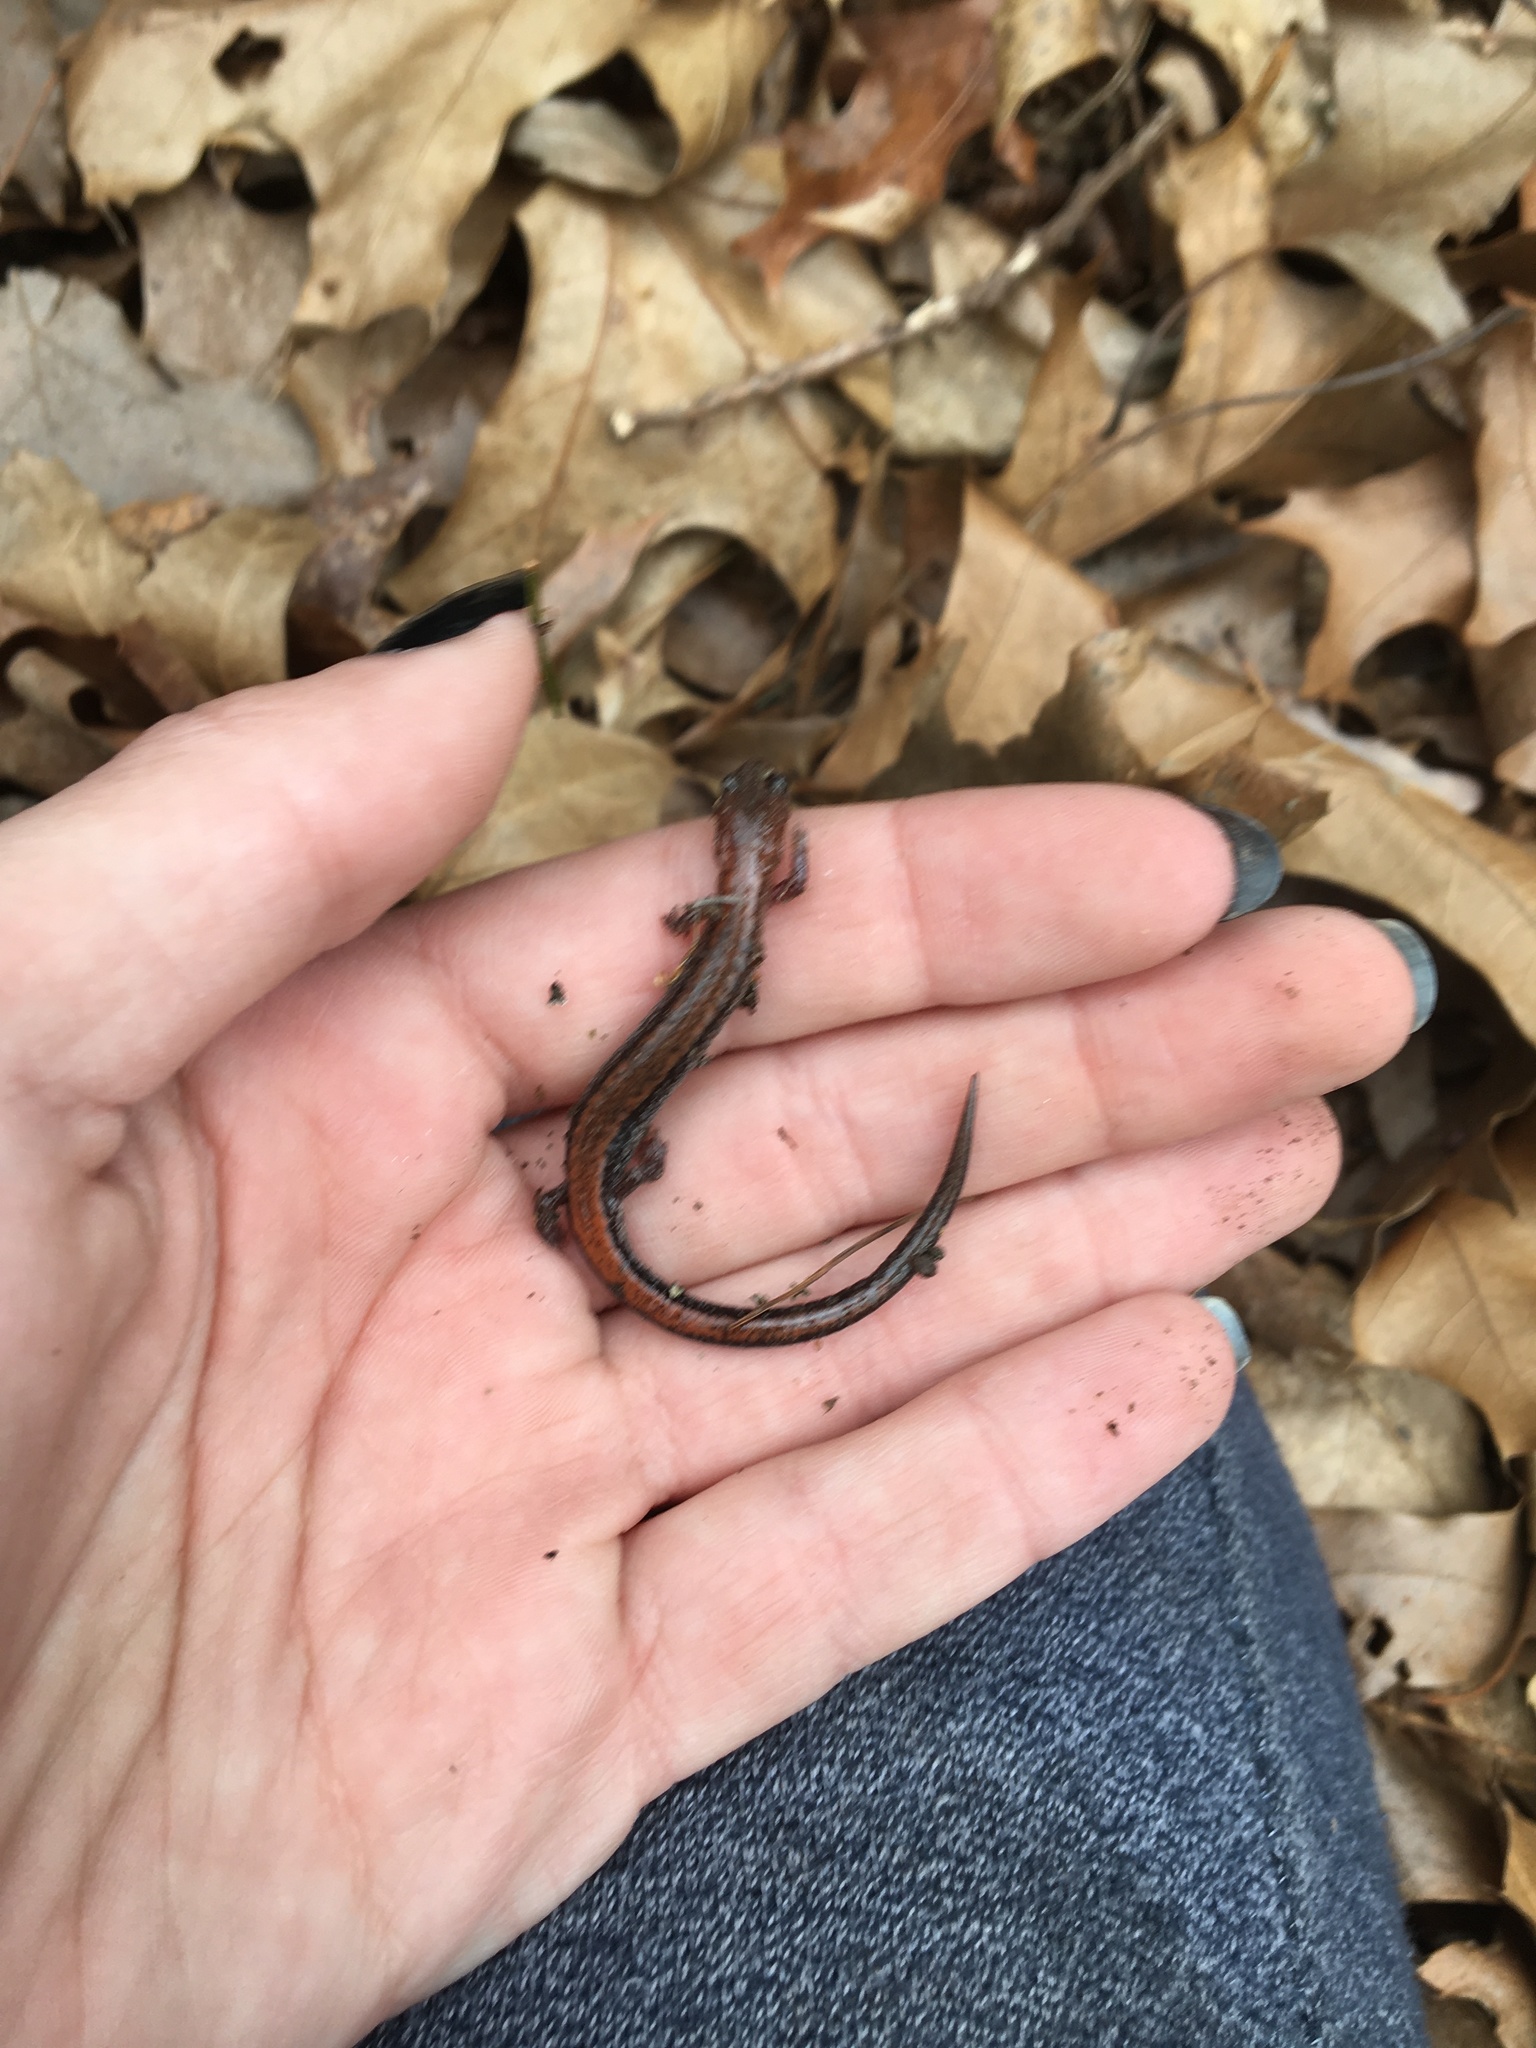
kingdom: Animalia
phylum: Chordata
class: Amphibia
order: Caudata
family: Plethodontidae
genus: Plethodon
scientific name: Plethodon cinereus
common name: Redback salamander
